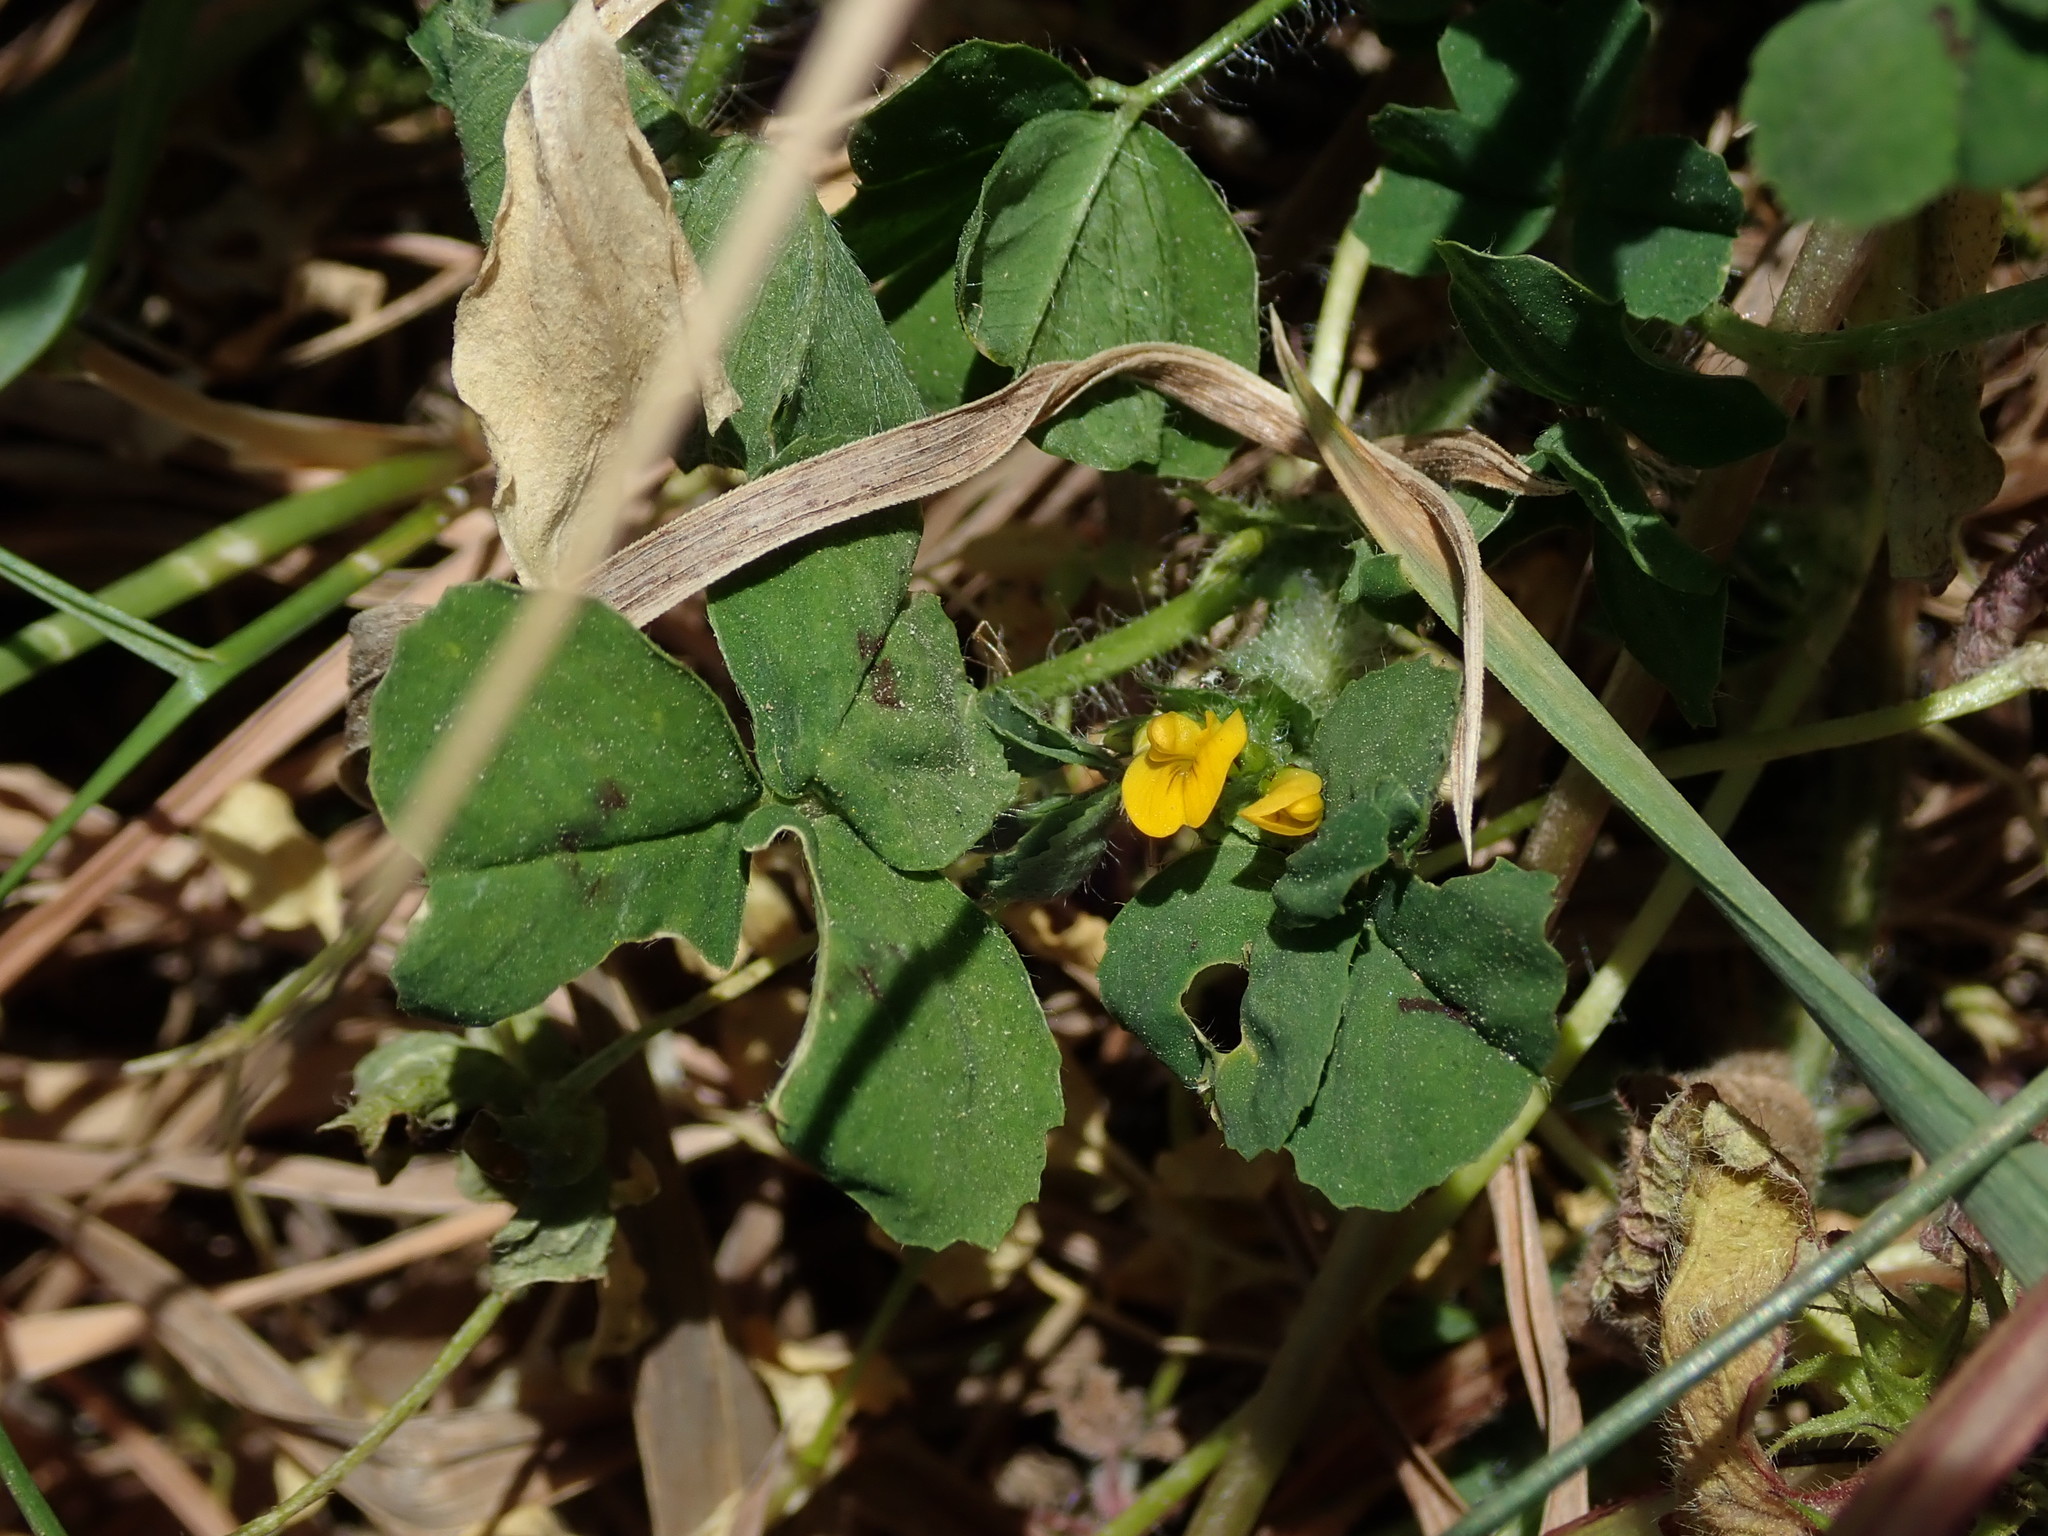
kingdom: Plantae
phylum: Tracheophyta
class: Magnoliopsida
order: Fabales
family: Fabaceae
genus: Medicago
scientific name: Medicago arabica
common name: Spotted medick
